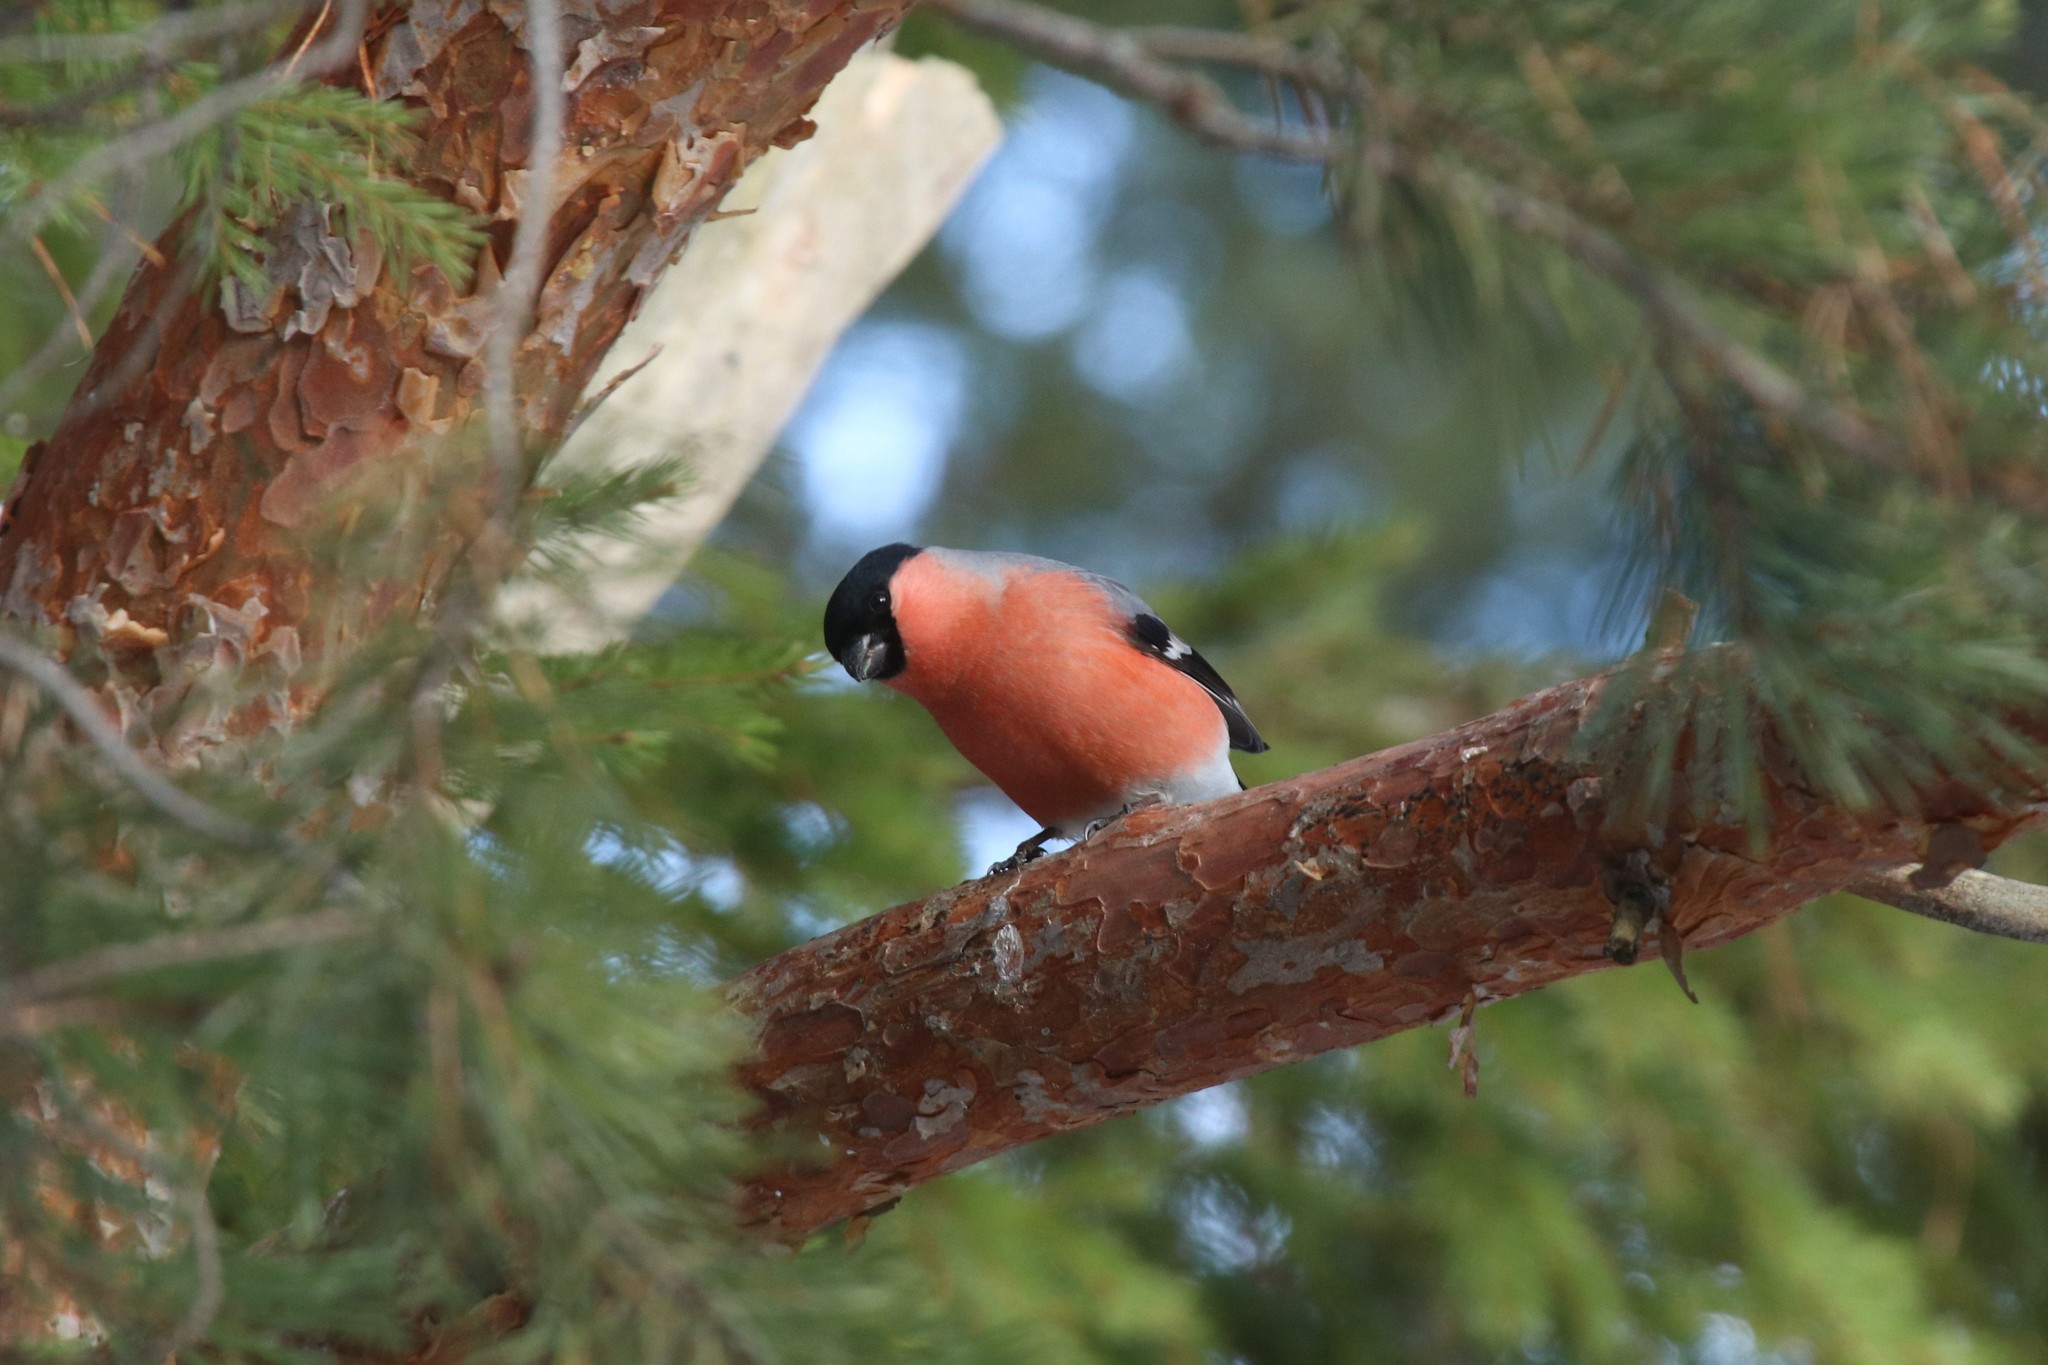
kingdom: Animalia
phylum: Chordata
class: Aves
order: Passeriformes
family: Fringillidae
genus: Pyrrhula
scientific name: Pyrrhula pyrrhula
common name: Eurasian bullfinch
